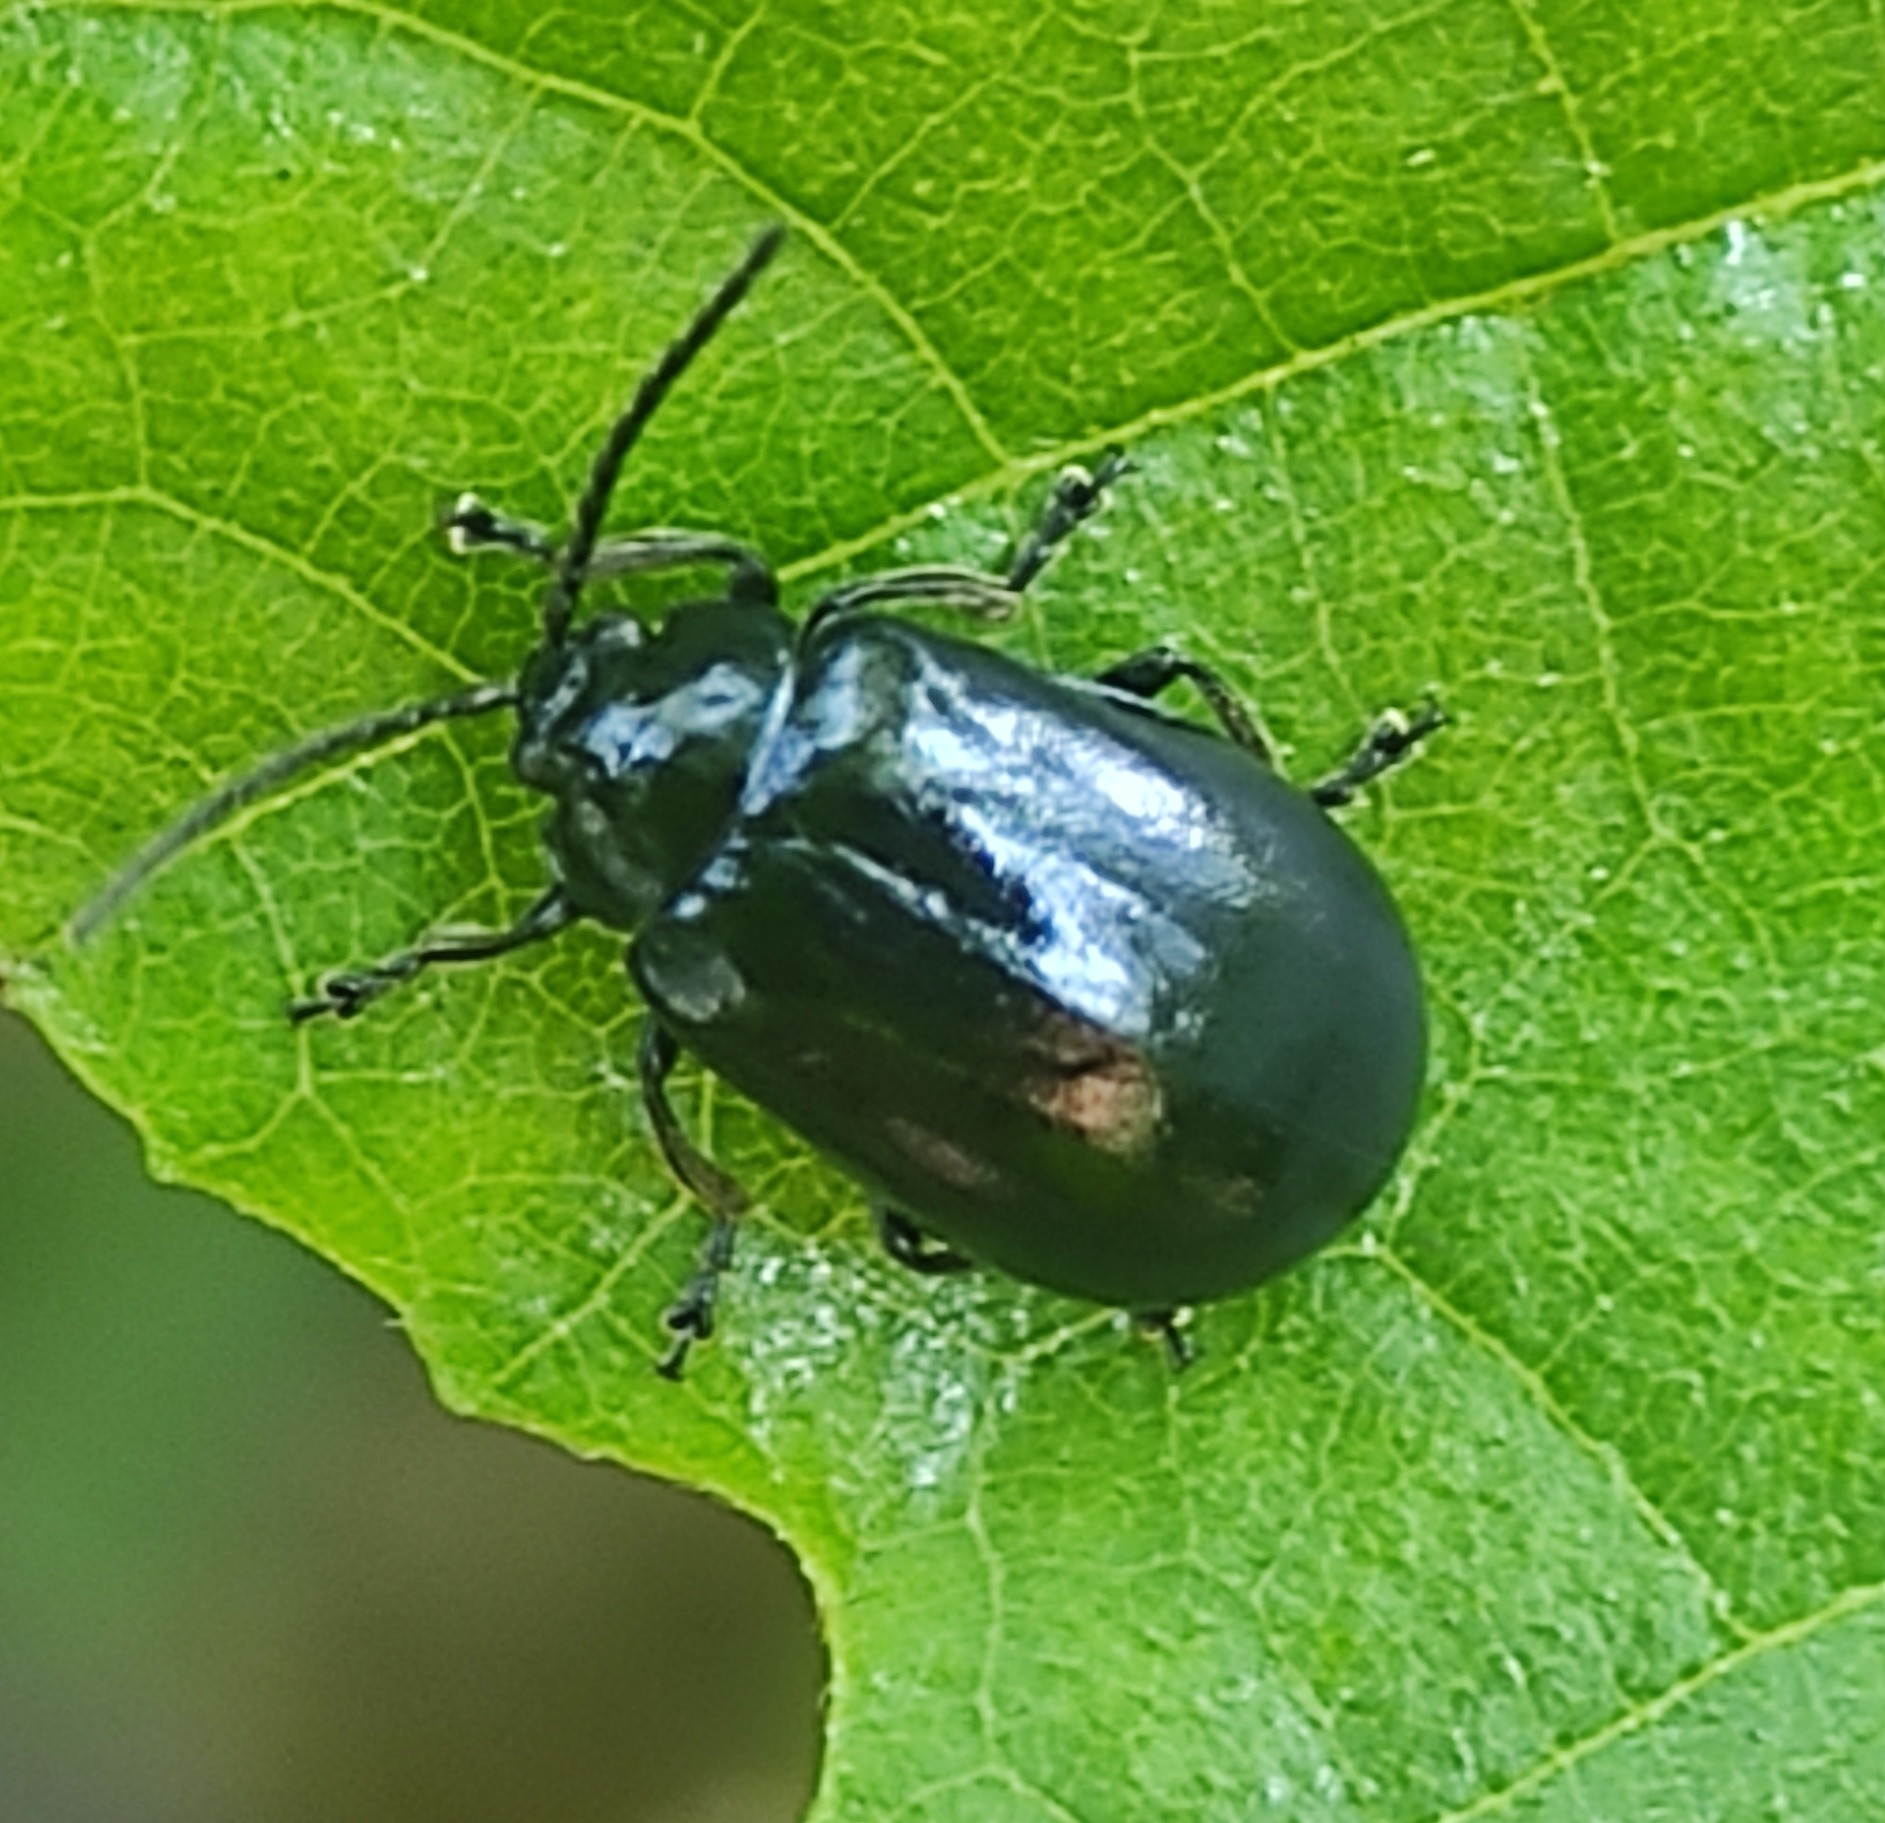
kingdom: Animalia
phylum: Arthropoda
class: Insecta
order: Coleoptera
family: Chrysomelidae
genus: Agelastica
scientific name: Agelastica alni
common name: Alder leaf beetle
